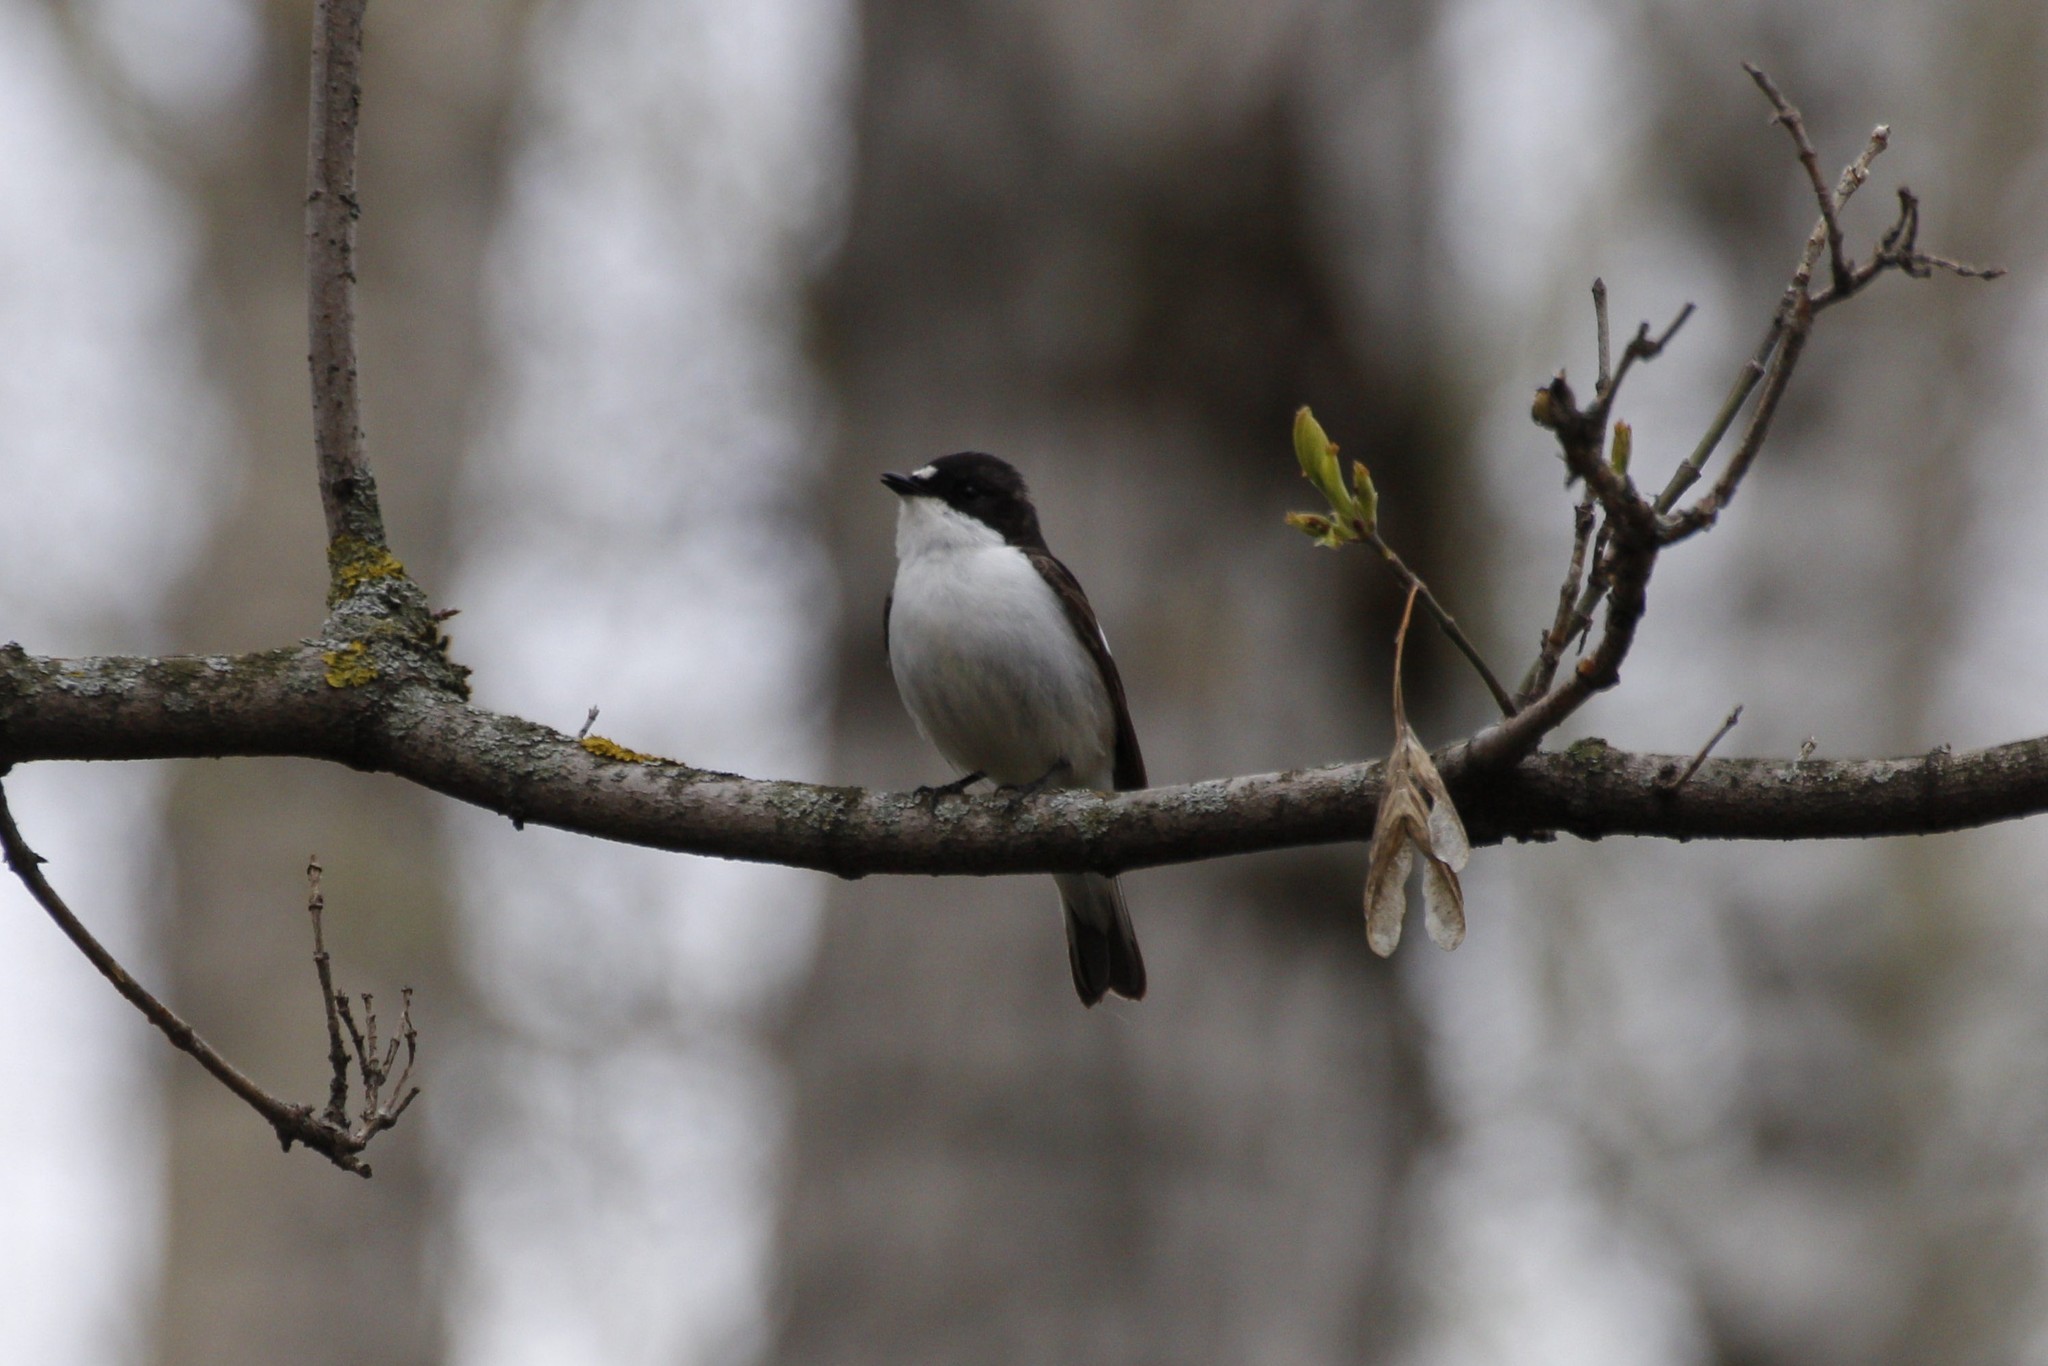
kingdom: Animalia
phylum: Chordata
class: Aves
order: Passeriformes
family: Muscicapidae
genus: Ficedula
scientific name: Ficedula hypoleuca
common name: European pied flycatcher
